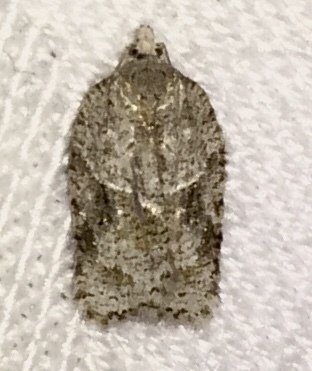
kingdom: Animalia
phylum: Arthropoda
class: Insecta
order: Lepidoptera
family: Tortricidae
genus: Acleris
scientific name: Acleris placidana
